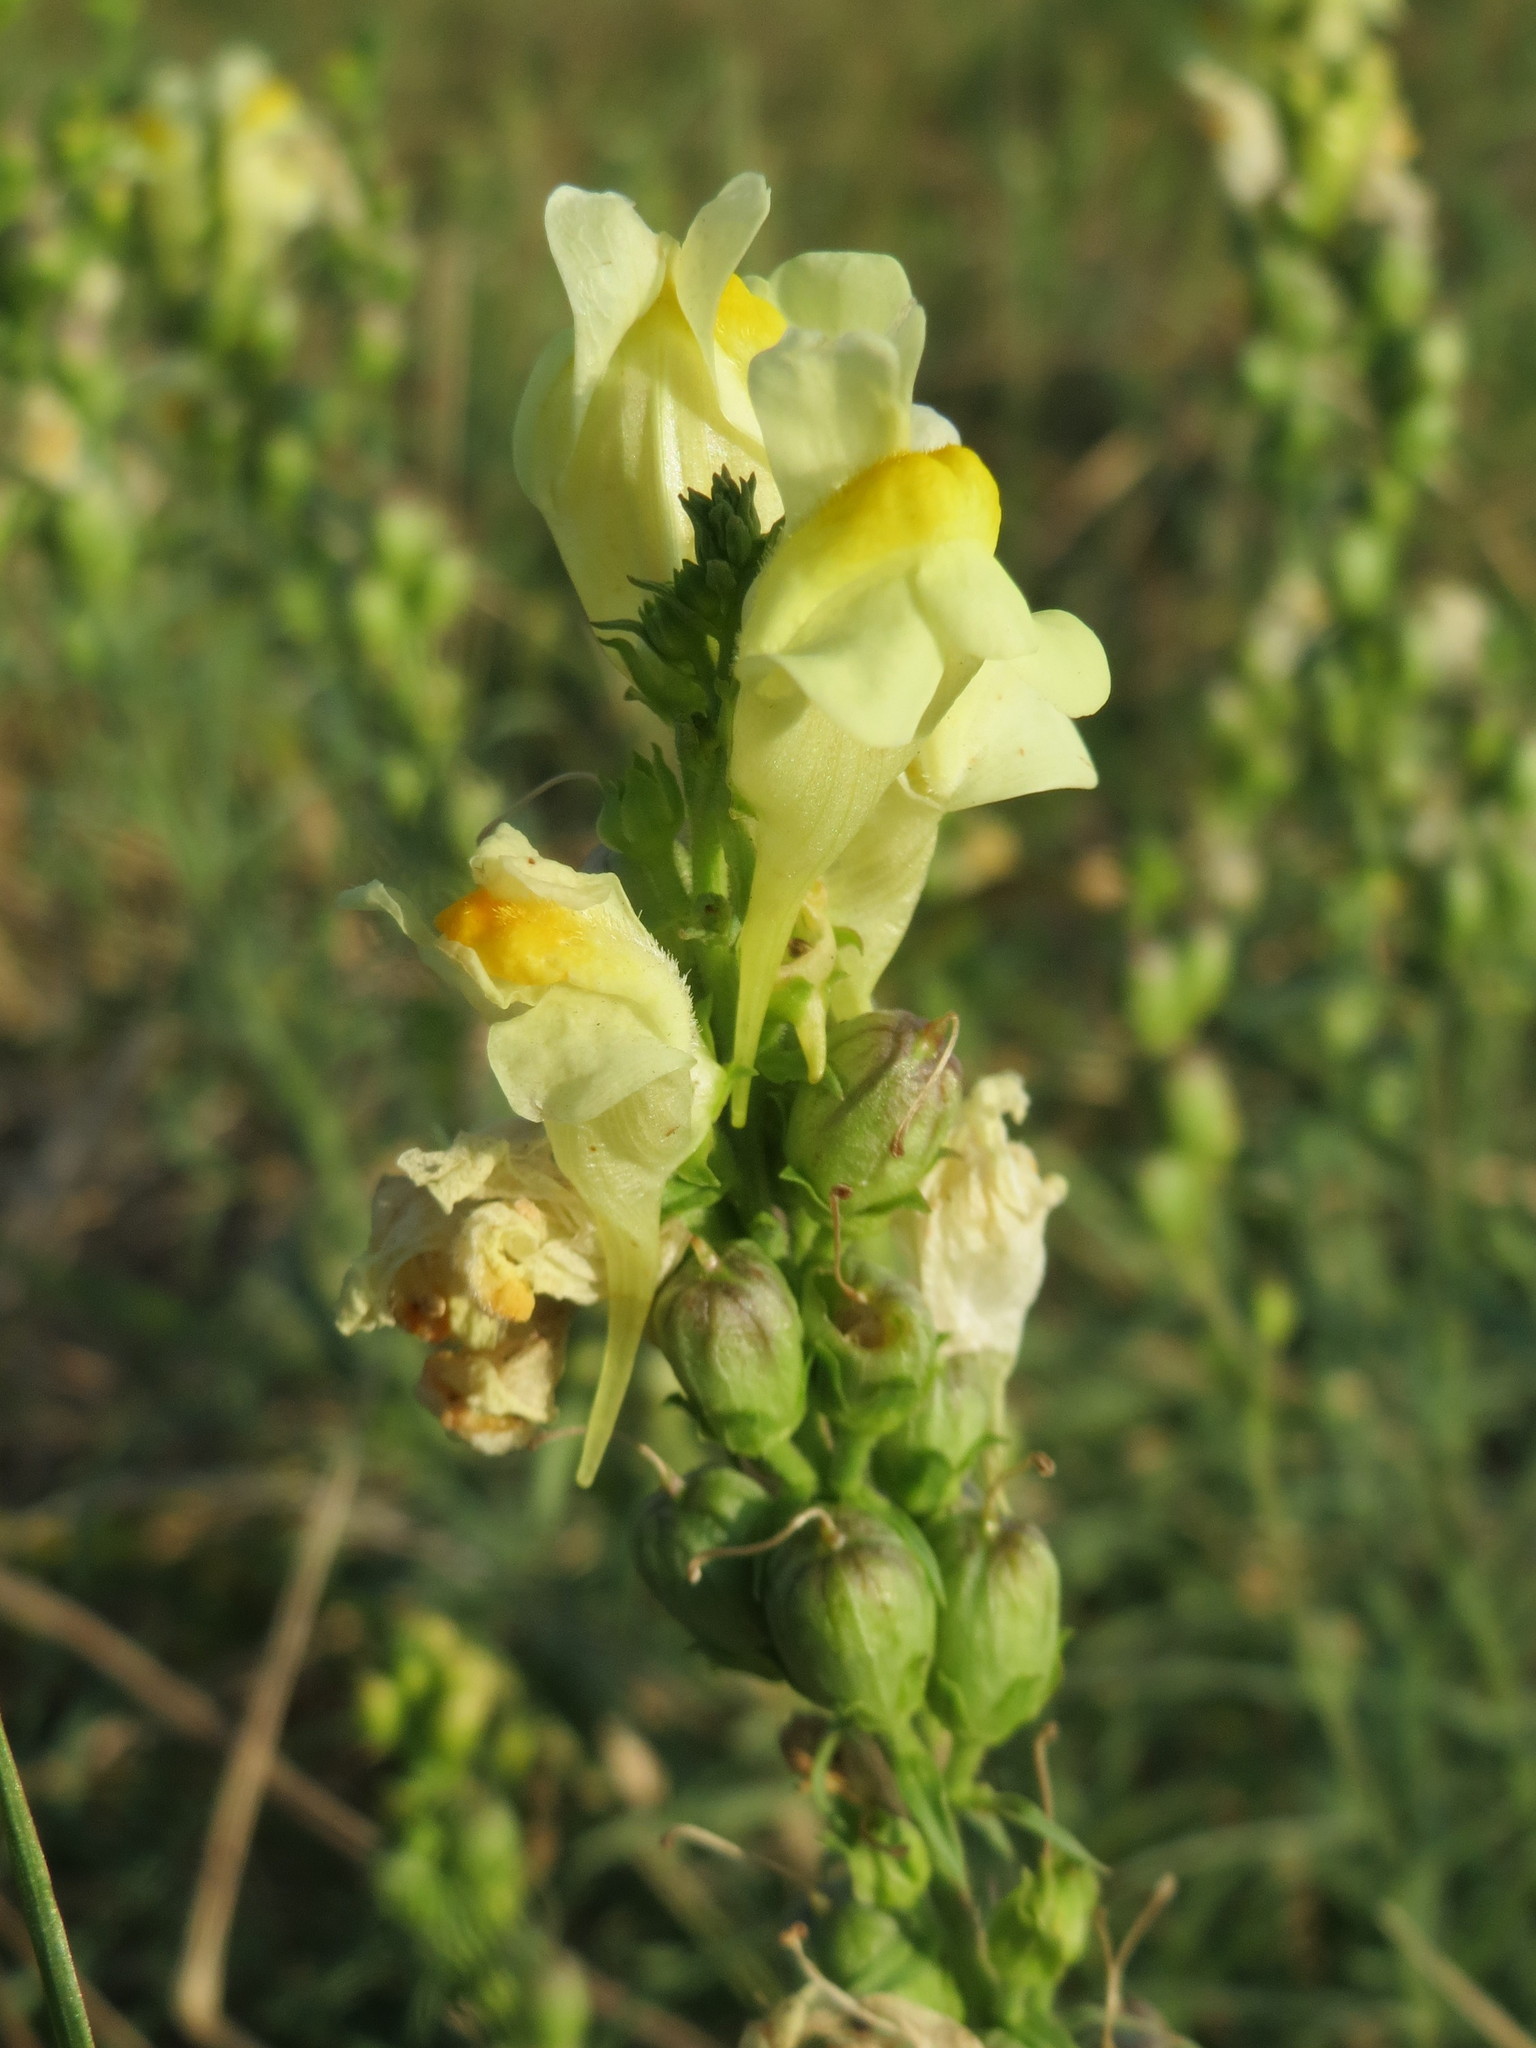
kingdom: Plantae
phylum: Tracheophyta
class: Magnoliopsida
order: Lamiales
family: Plantaginaceae
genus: Linaria
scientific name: Linaria vulgaris
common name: Butter and eggs
